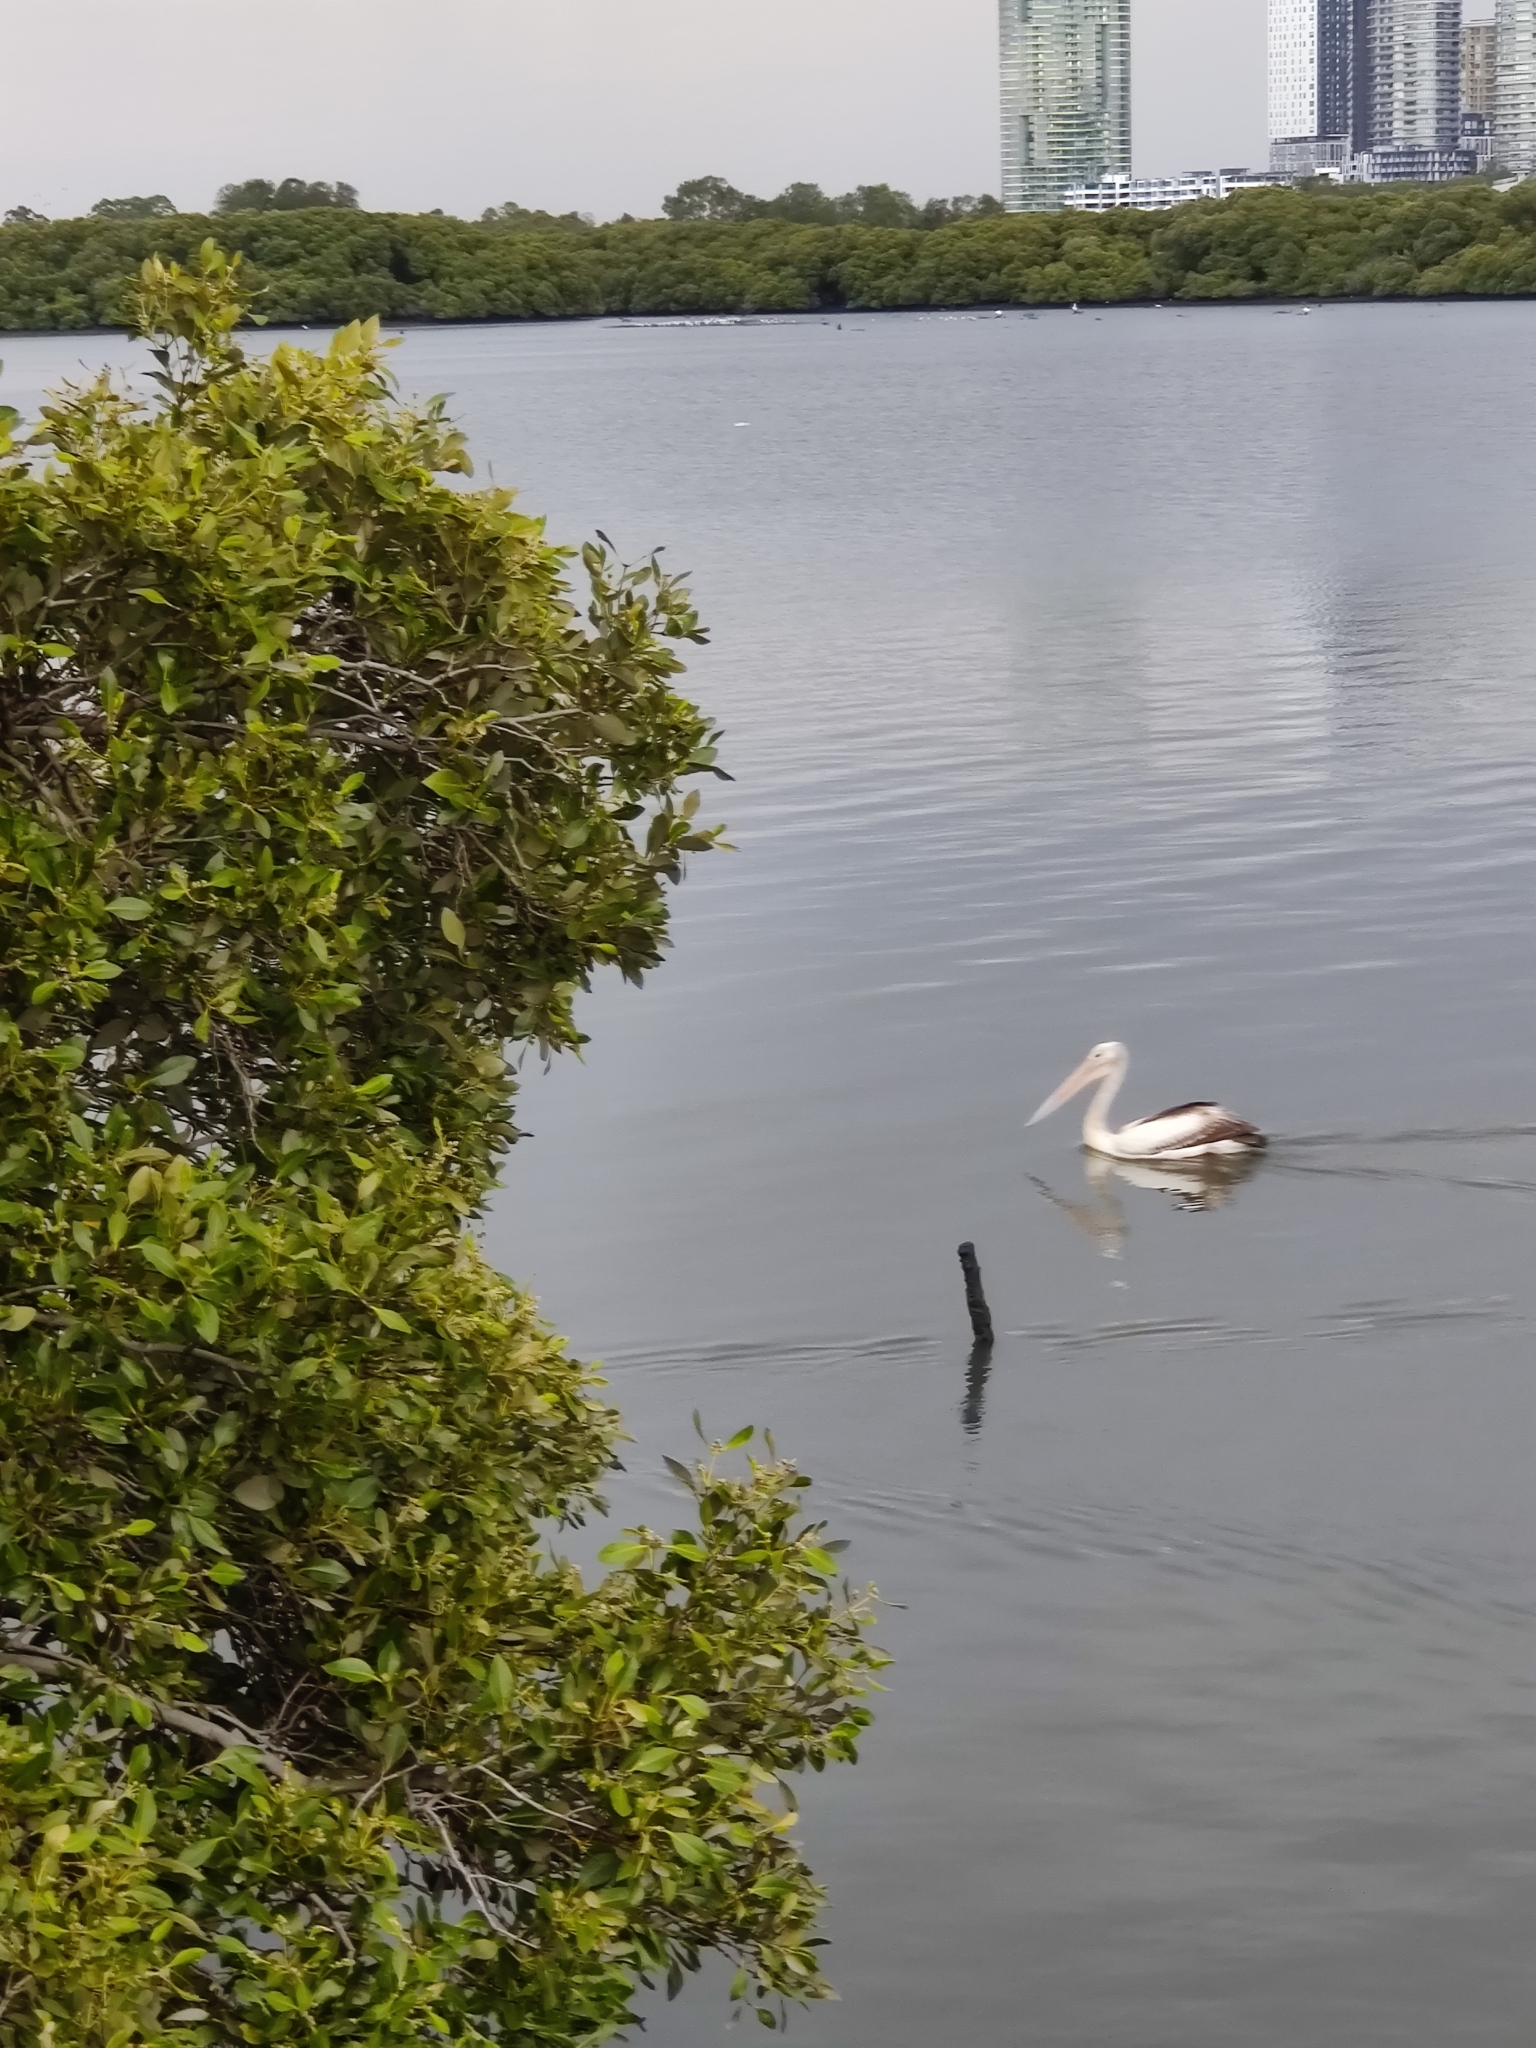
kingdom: Animalia
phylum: Chordata
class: Aves
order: Pelecaniformes
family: Pelecanidae
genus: Pelecanus
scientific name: Pelecanus conspicillatus
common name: Australian pelican
